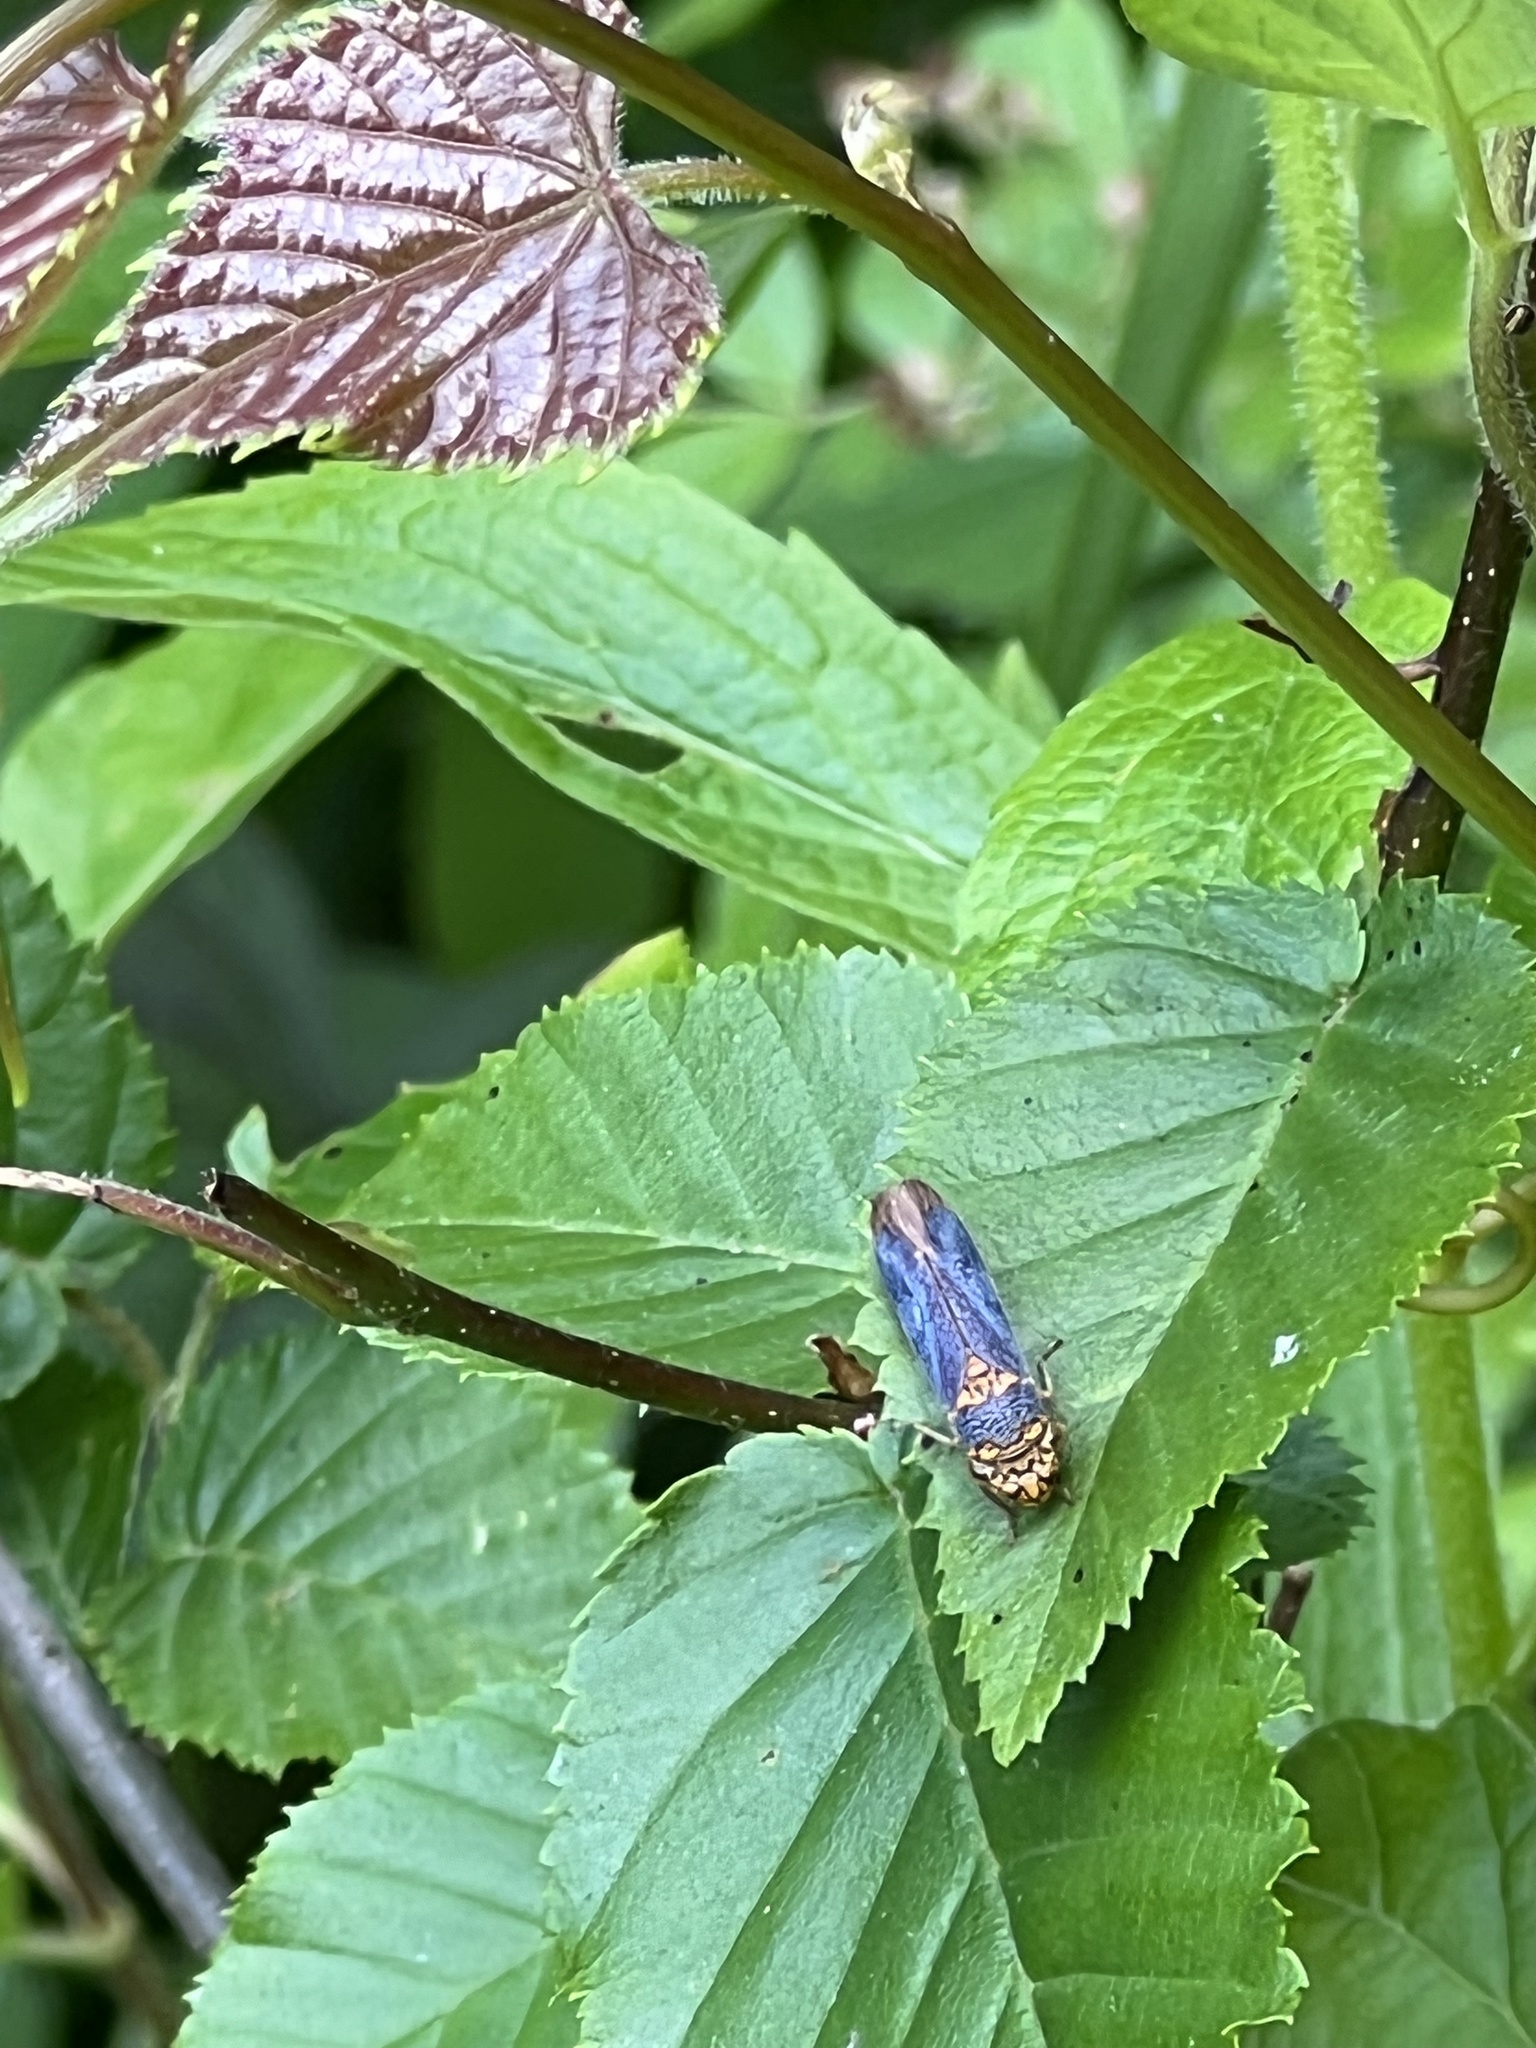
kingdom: Animalia
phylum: Arthropoda
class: Insecta
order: Hemiptera
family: Cicadellidae
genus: Oncometopia
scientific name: Oncometopia orbona
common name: Broad-headed sharpshooter
